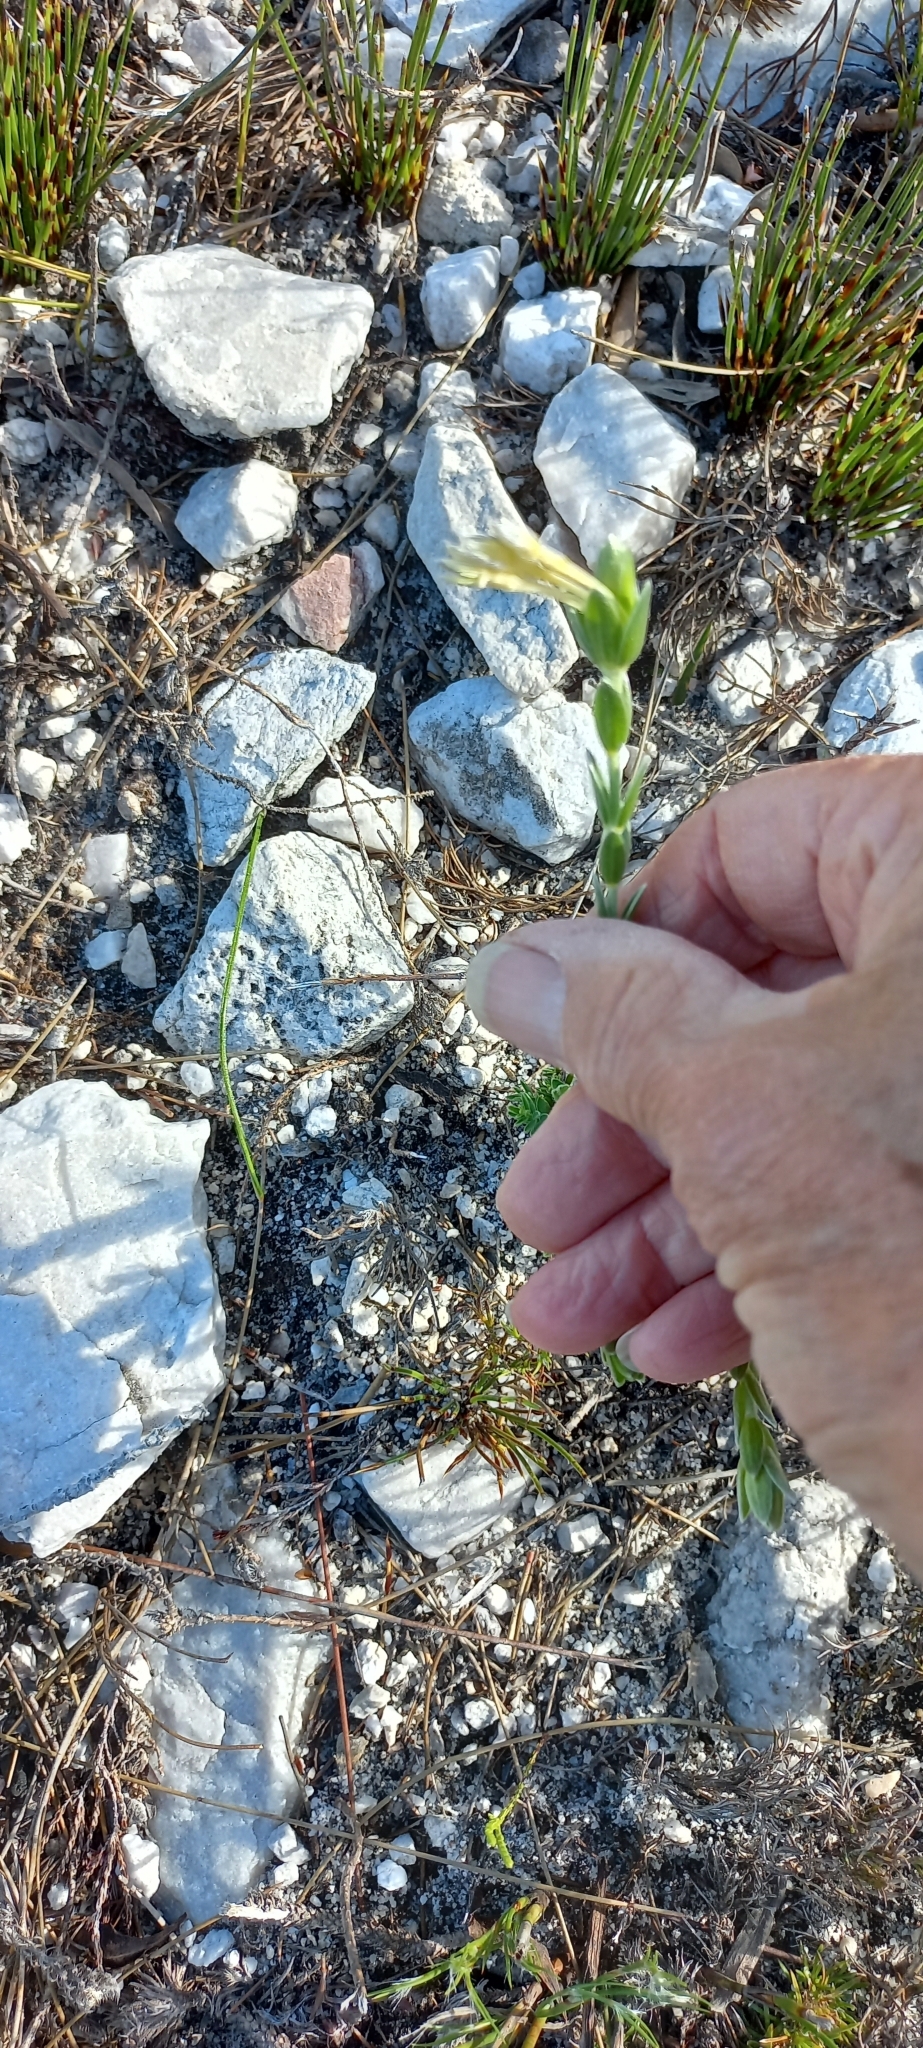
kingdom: Plantae
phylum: Tracheophyta
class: Magnoliopsida
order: Malvales
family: Thymelaeaceae
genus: Gnidia
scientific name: Gnidia anomala
